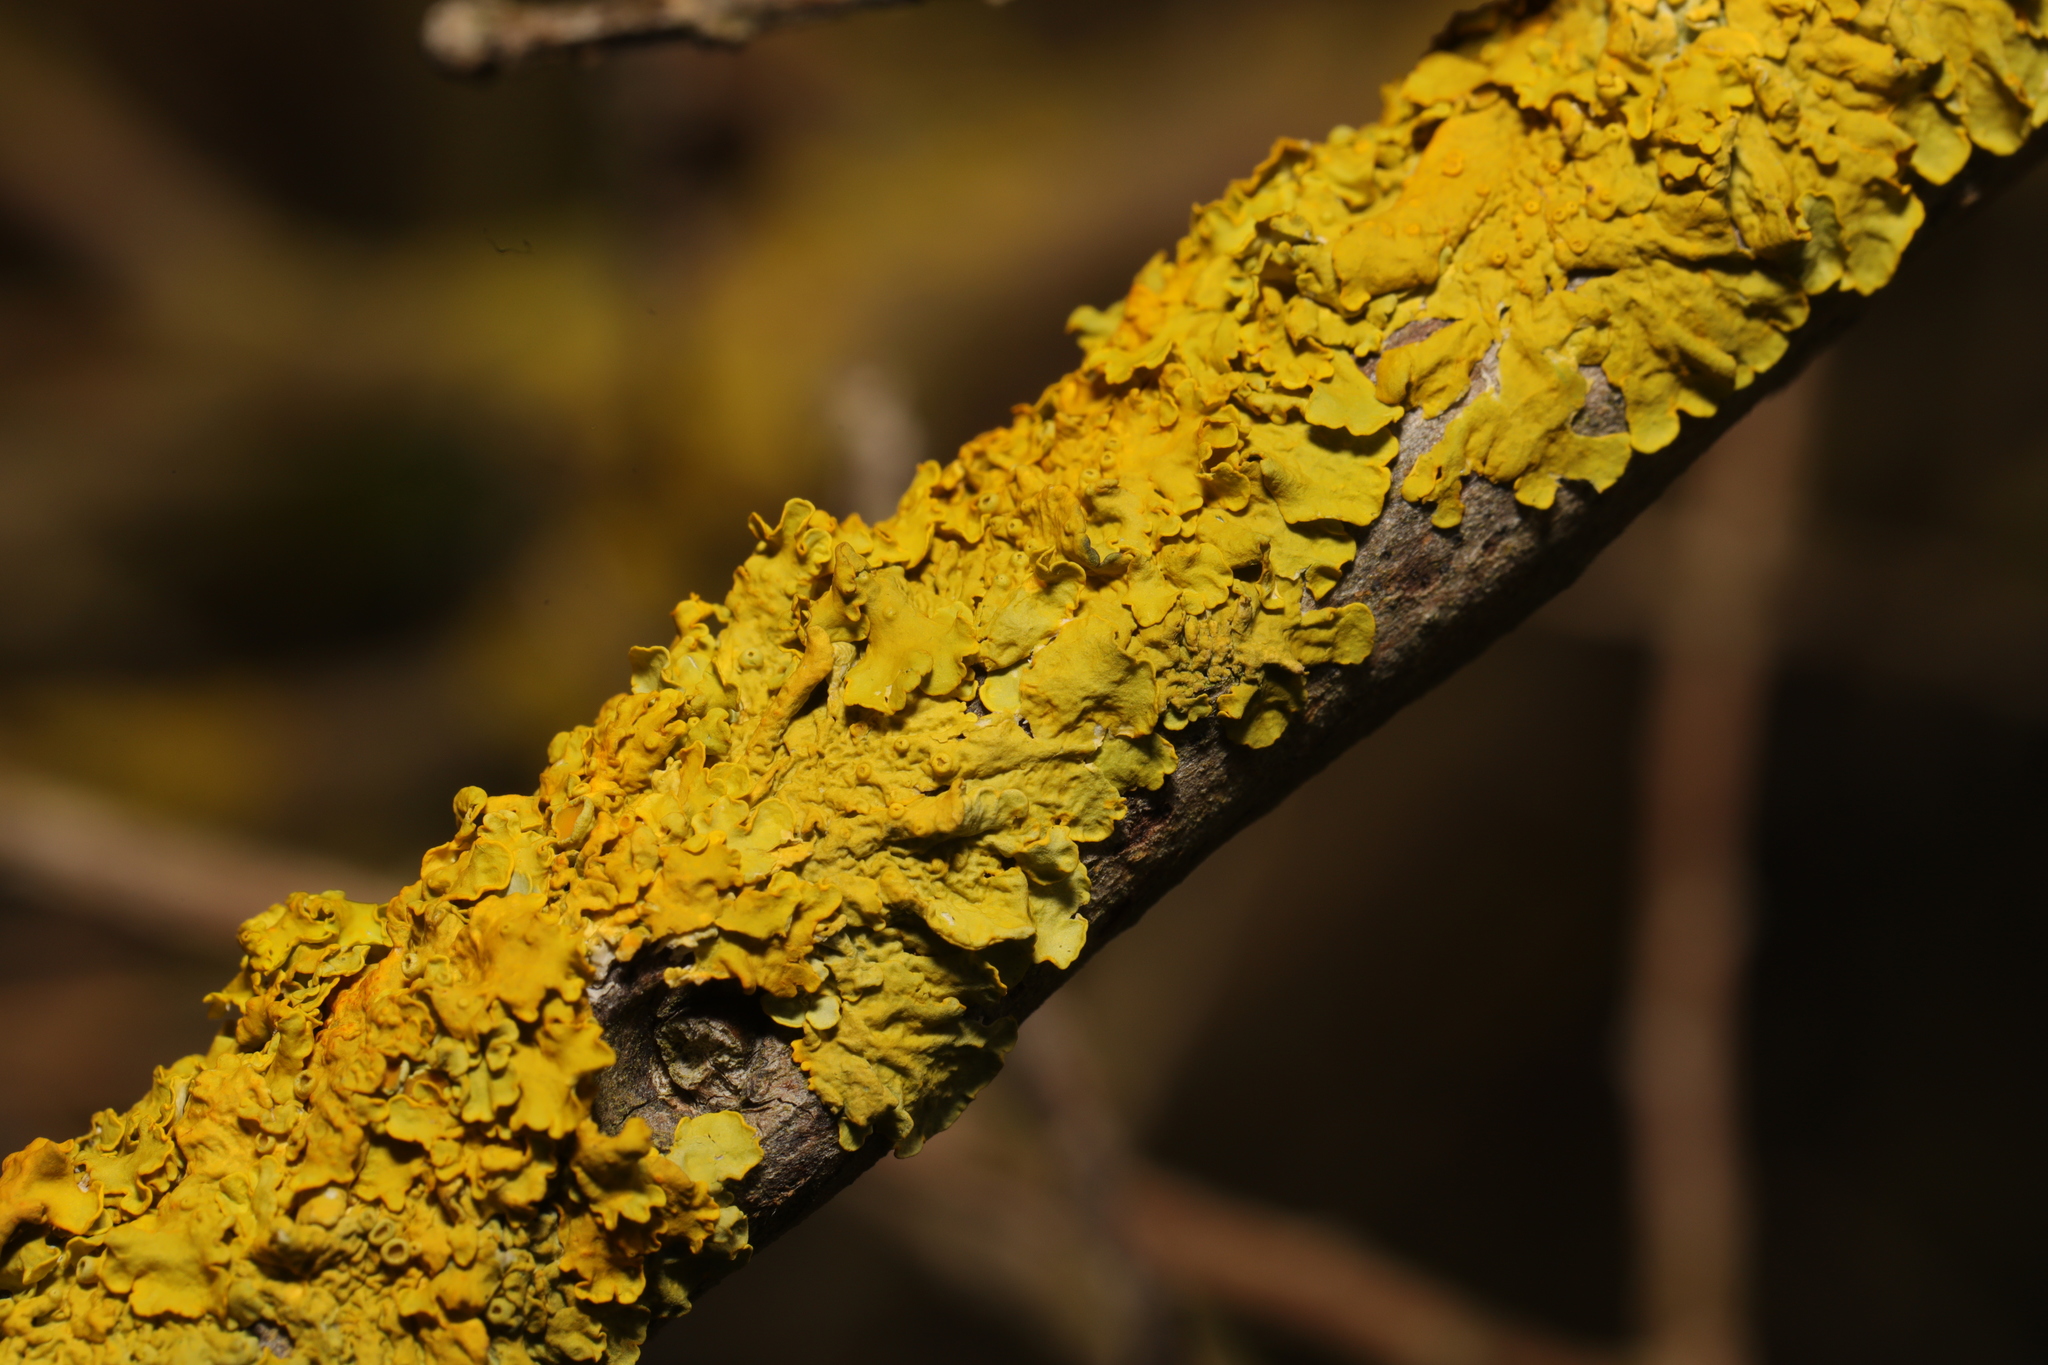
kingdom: Fungi
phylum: Ascomycota
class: Lecanoromycetes
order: Teloschistales
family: Teloschistaceae
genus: Xanthoria
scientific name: Xanthoria parietina
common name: Common orange lichen
